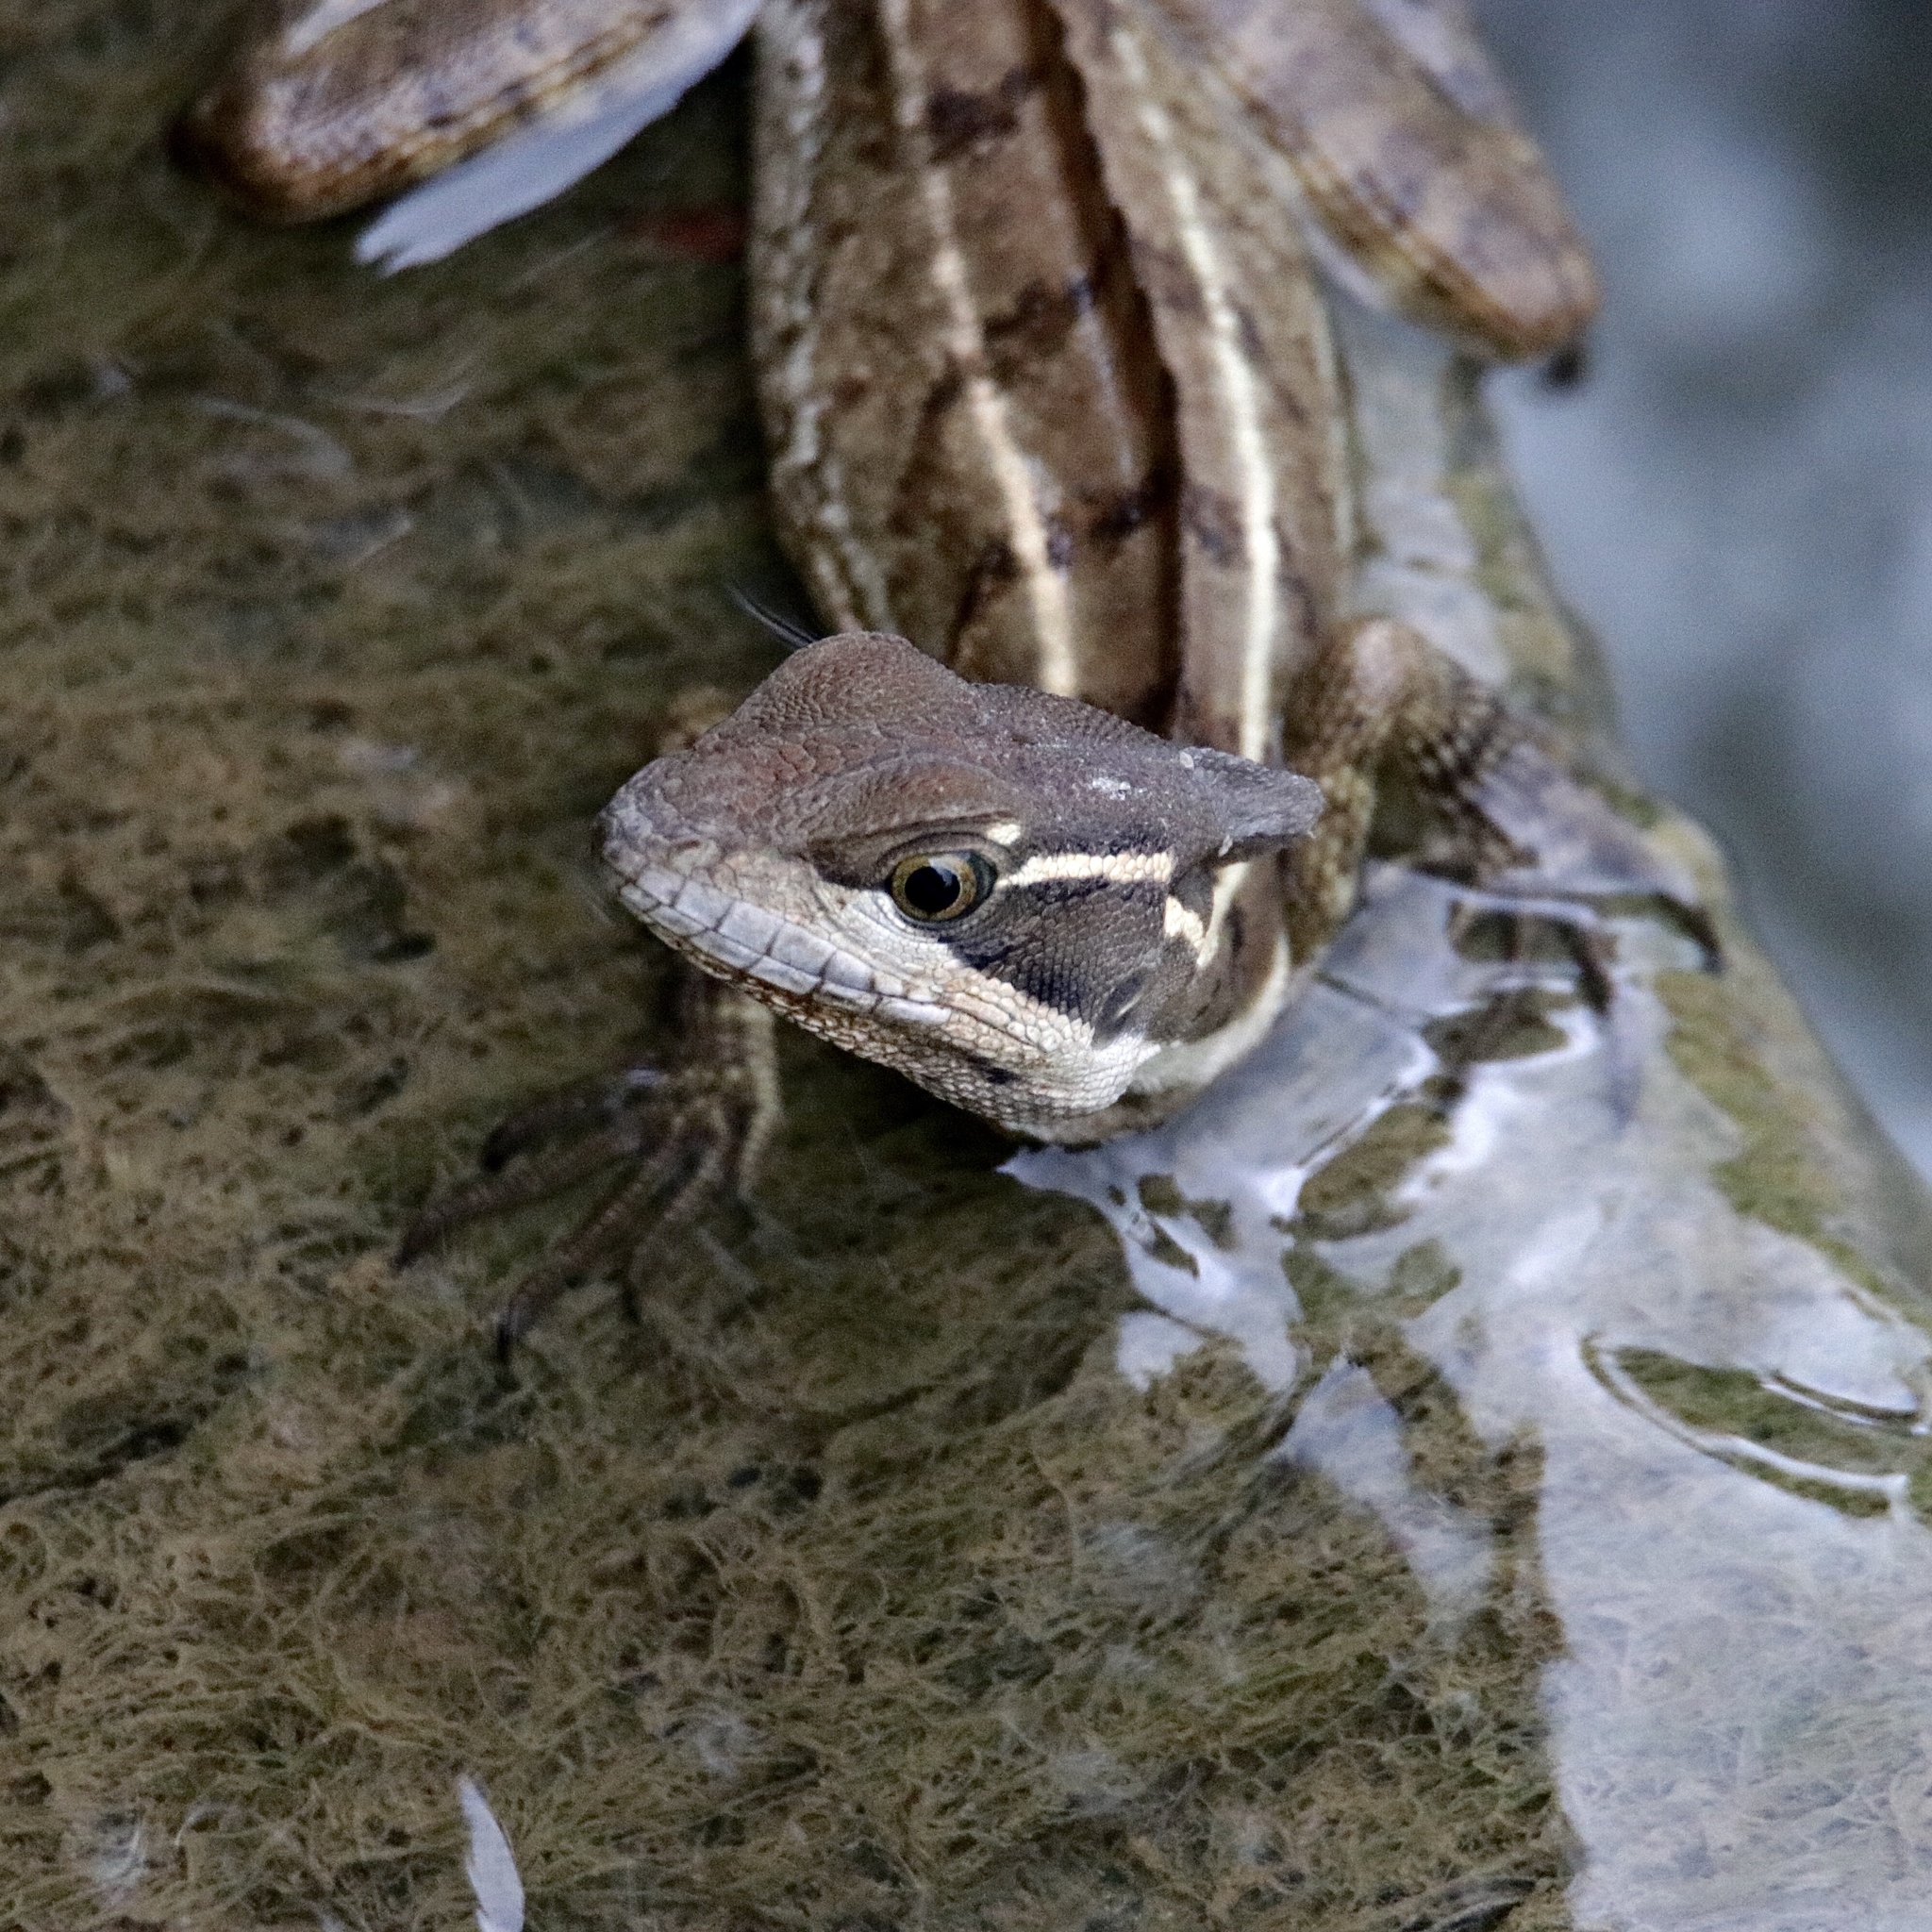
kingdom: Animalia
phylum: Chordata
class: Squamata
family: Corytophanidae
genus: Basiliscus
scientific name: Basiliscus basiliscus
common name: Common basilisk
